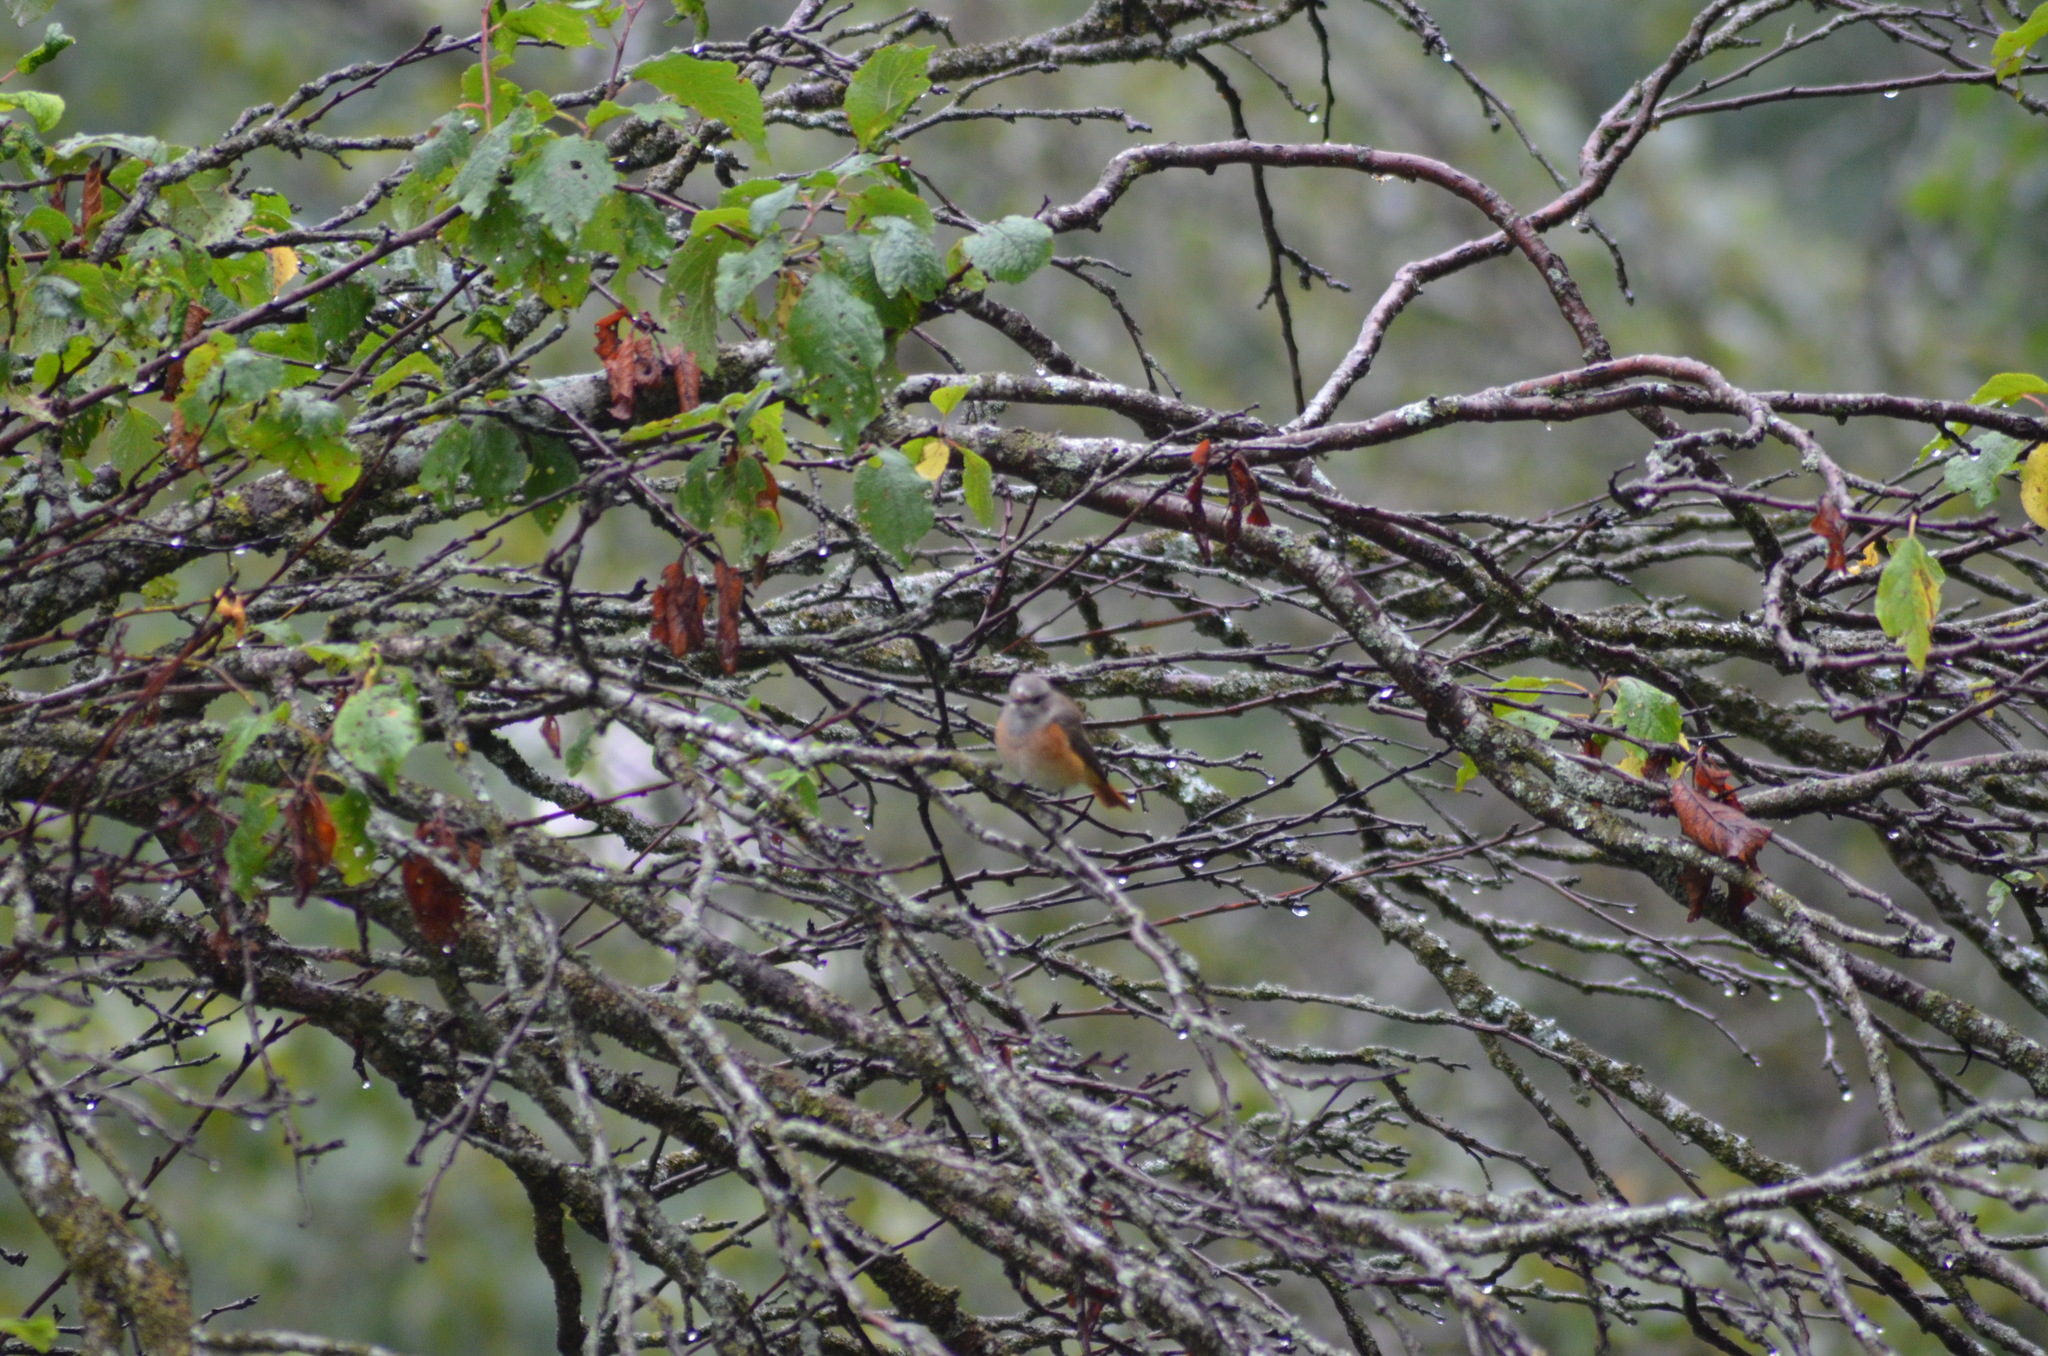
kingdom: Animalia
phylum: Chordata
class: Aves
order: Passeriformes
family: Muscicapidae
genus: Phoenicurus
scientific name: Phoenicurus phoenicurus
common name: Common redstart
